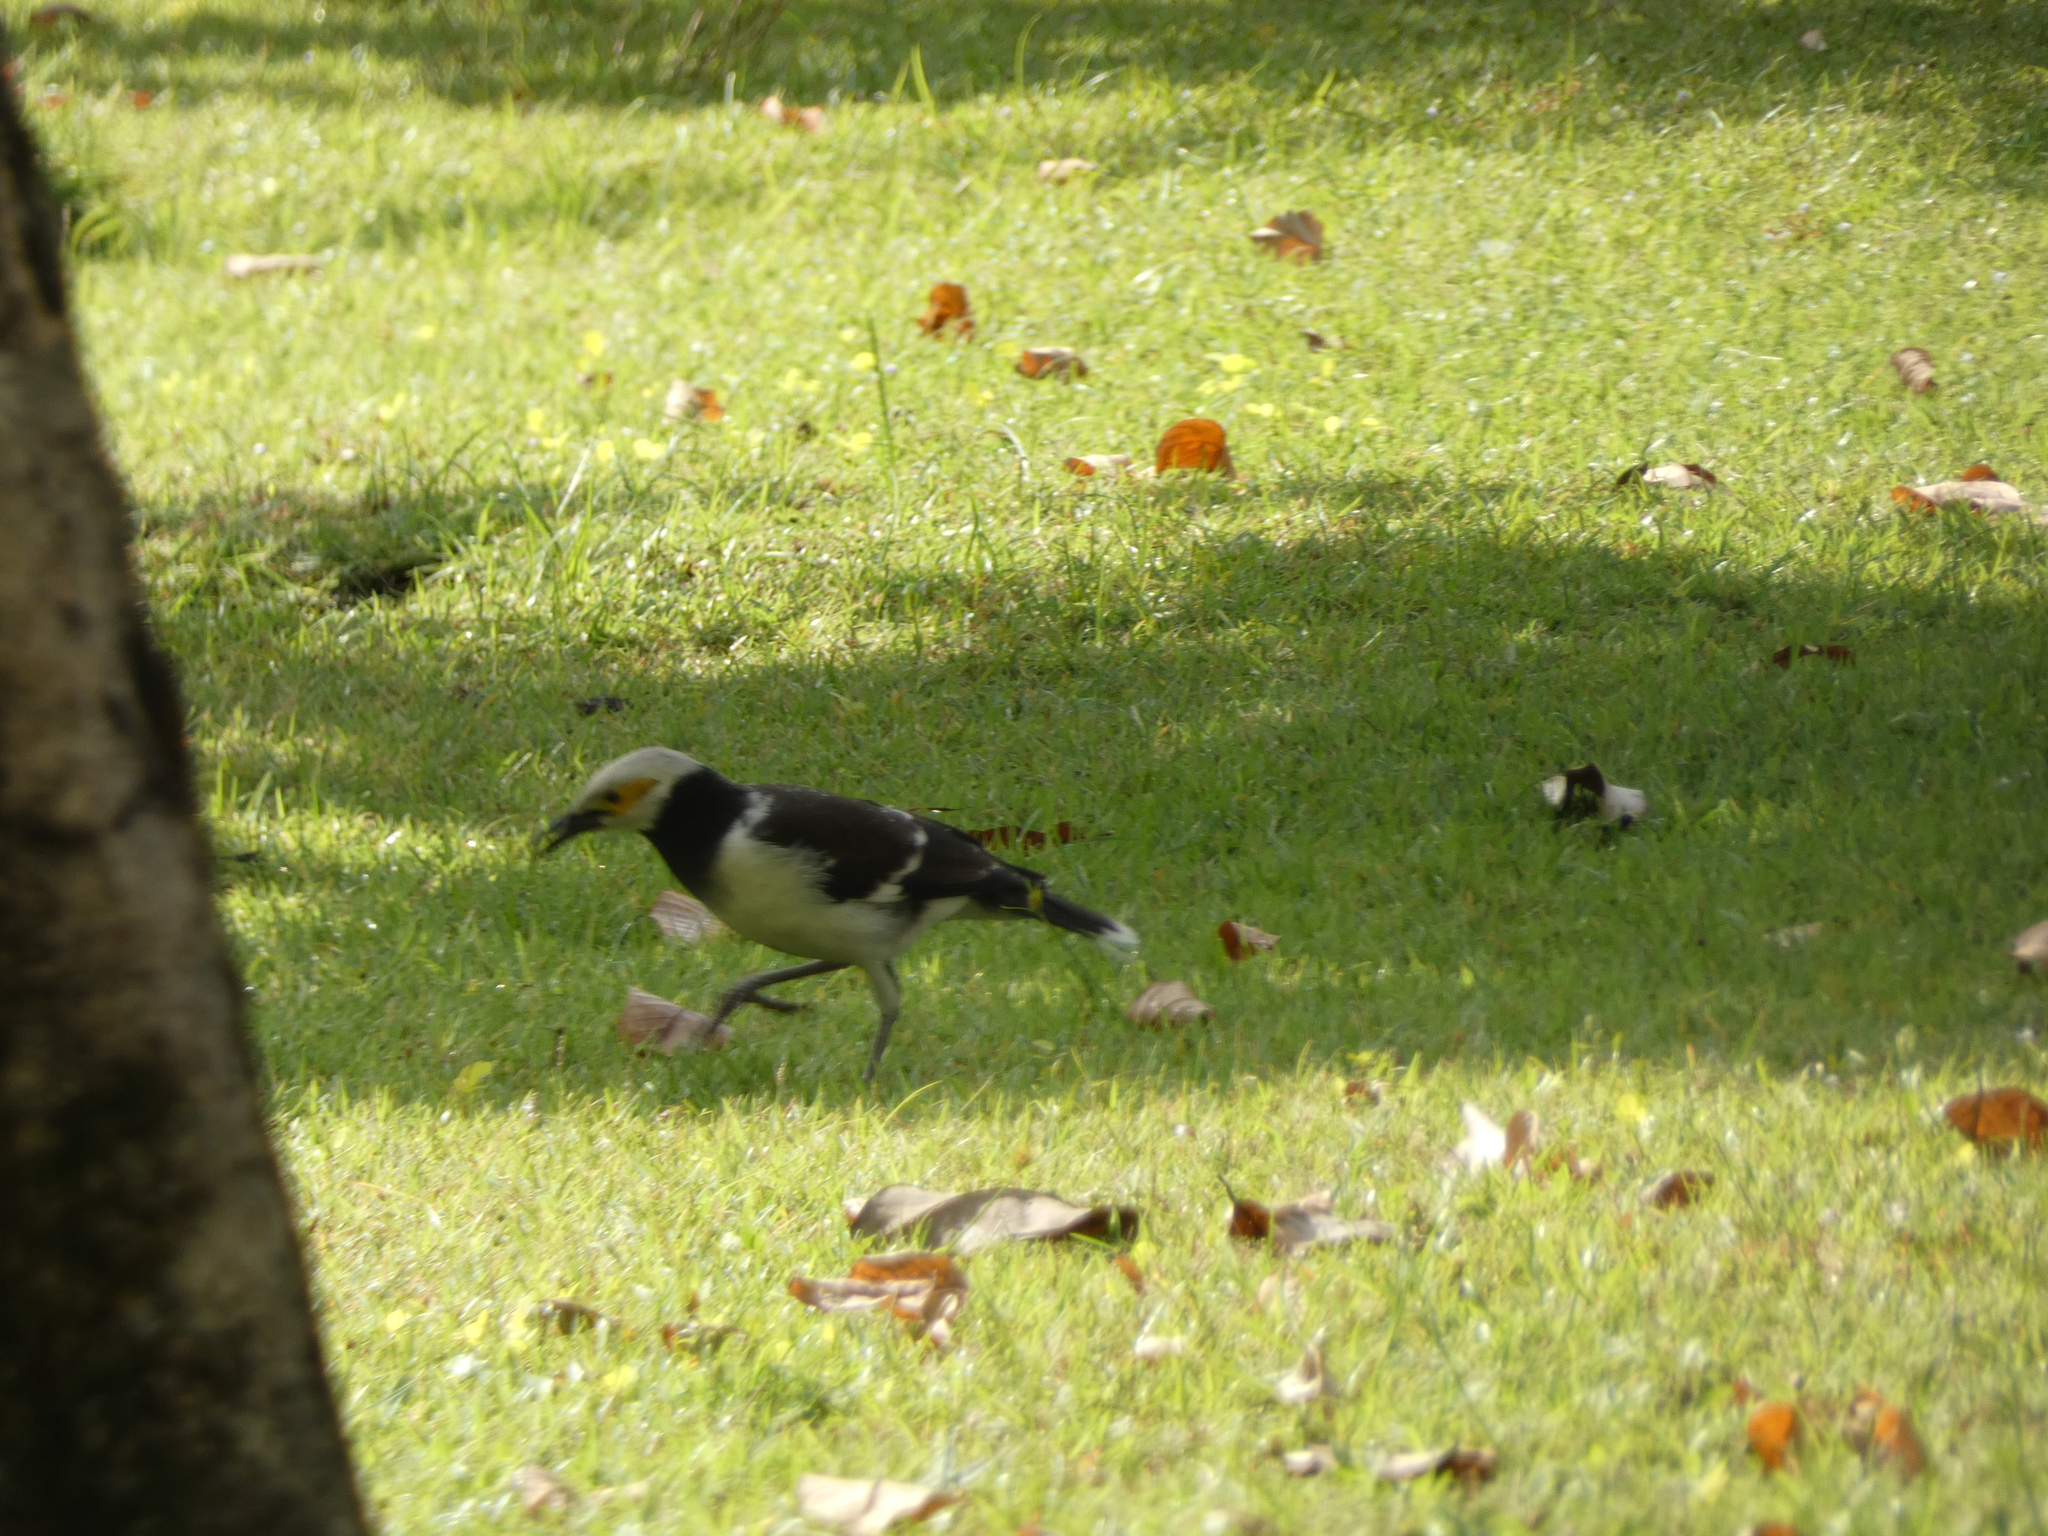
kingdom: Animalia
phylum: Chordata
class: Aves
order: Passeriformes
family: Sturnidae
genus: Gracupica
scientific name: Gracupica nigricollis
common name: Black-collared starling
